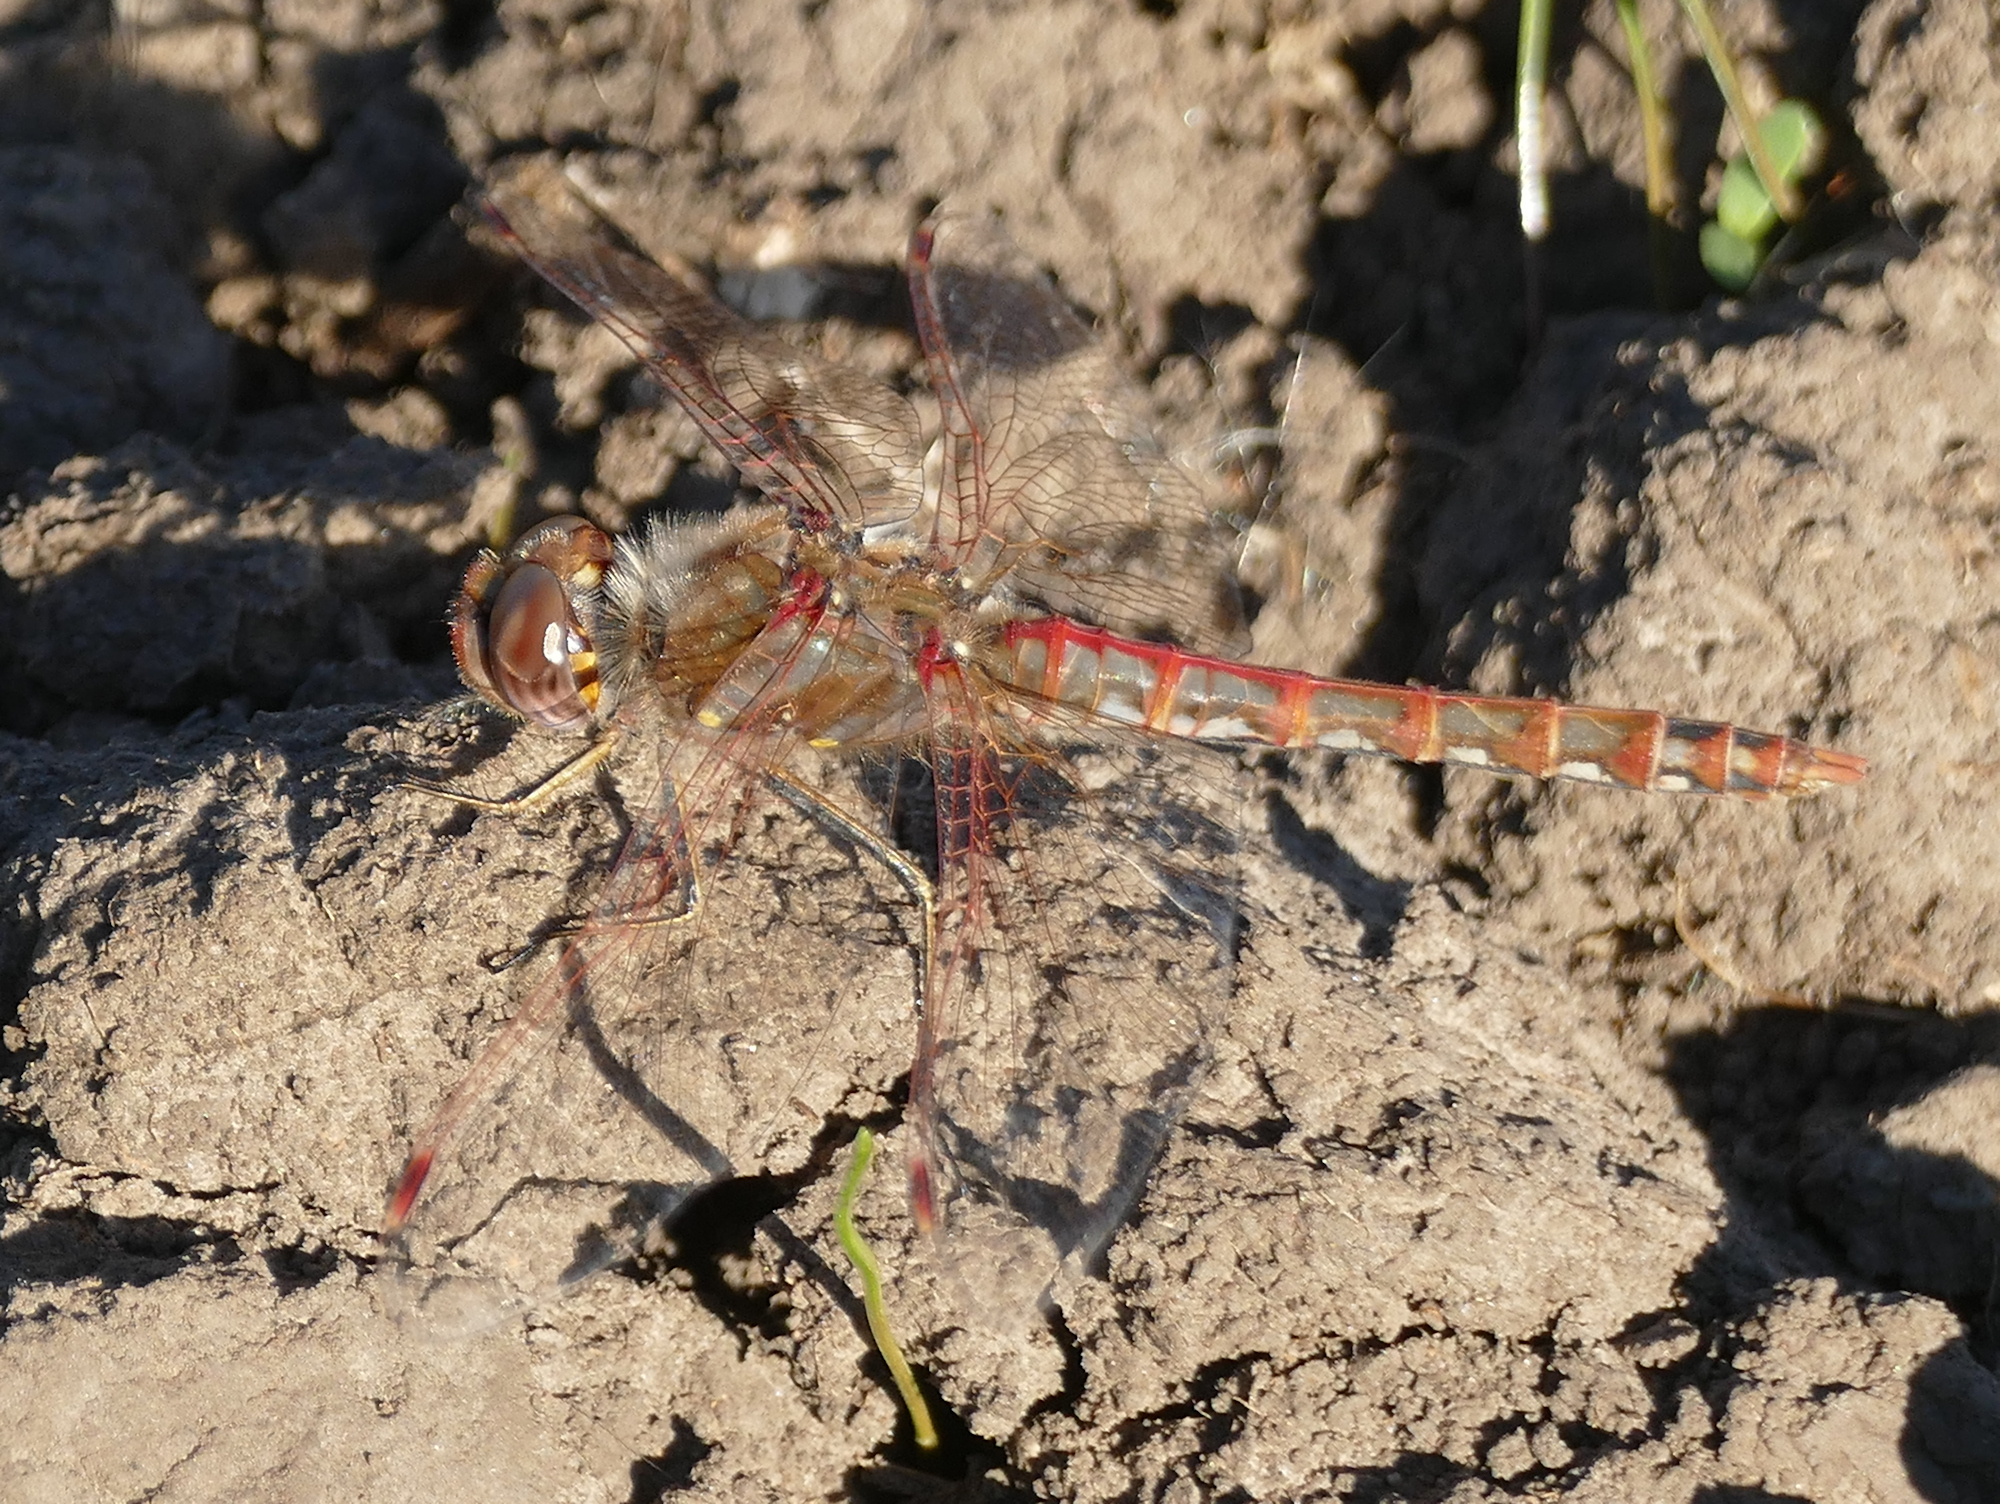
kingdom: Animalia
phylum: Arthropoda
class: Insecta
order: Odonata
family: Libellulidae
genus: Sympetrum
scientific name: Sympetrum corruptum
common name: Variegated meadowhawk
